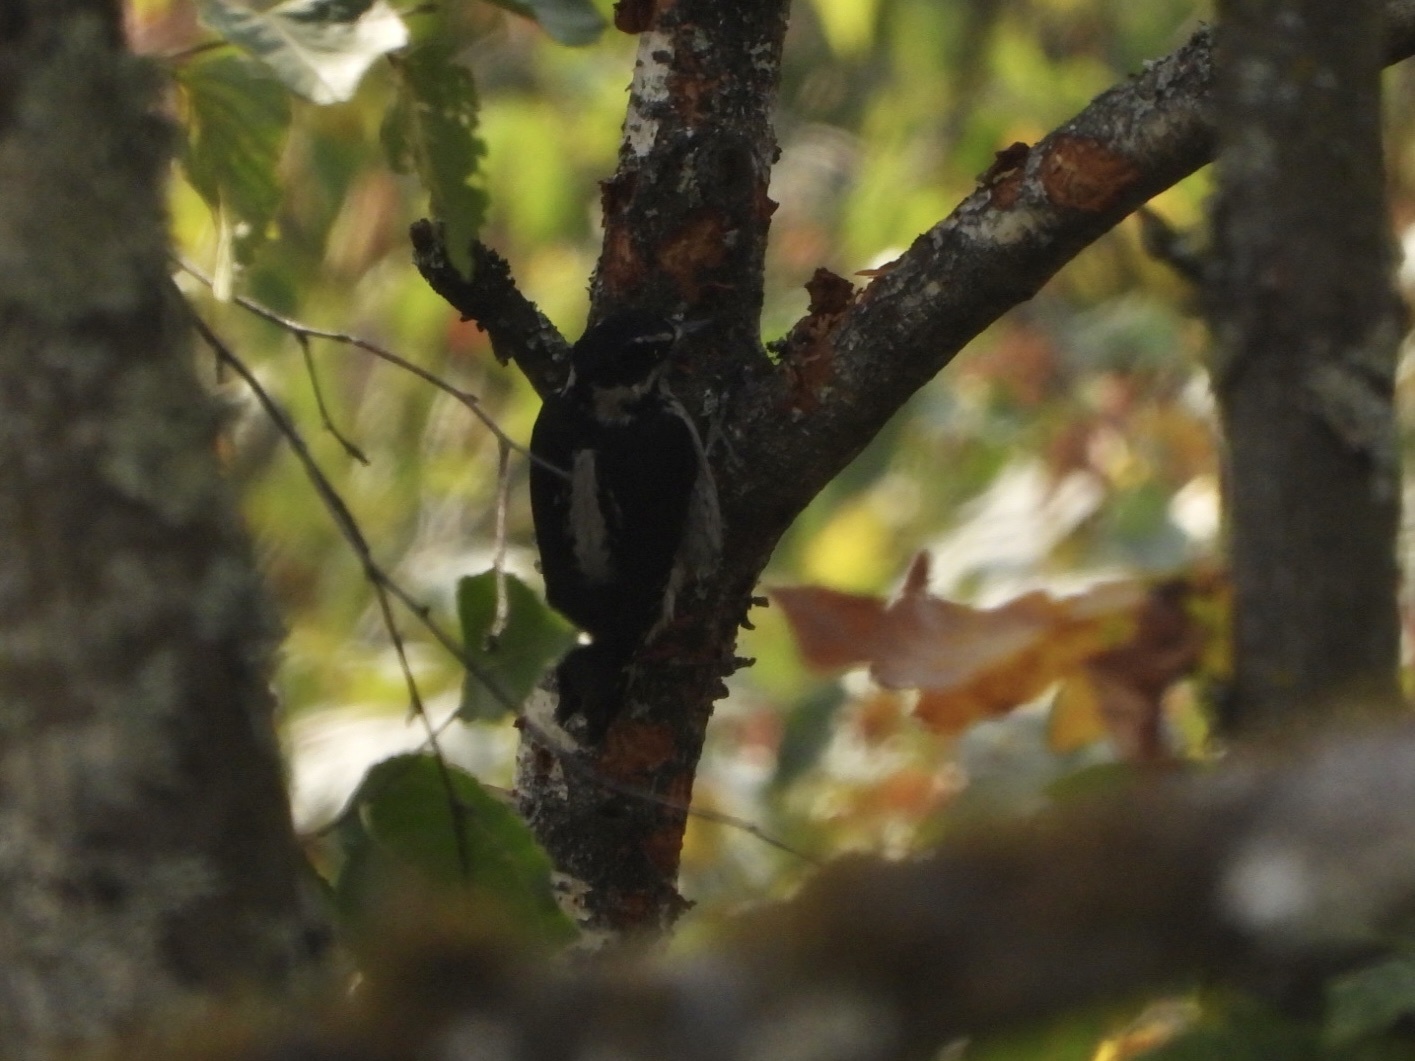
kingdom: Animalia
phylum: Chordata
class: Aves
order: Piciformes
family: Picidae
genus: Leuconotopicus
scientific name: Leuconotopicus villosus
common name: Hairy woodpecker
